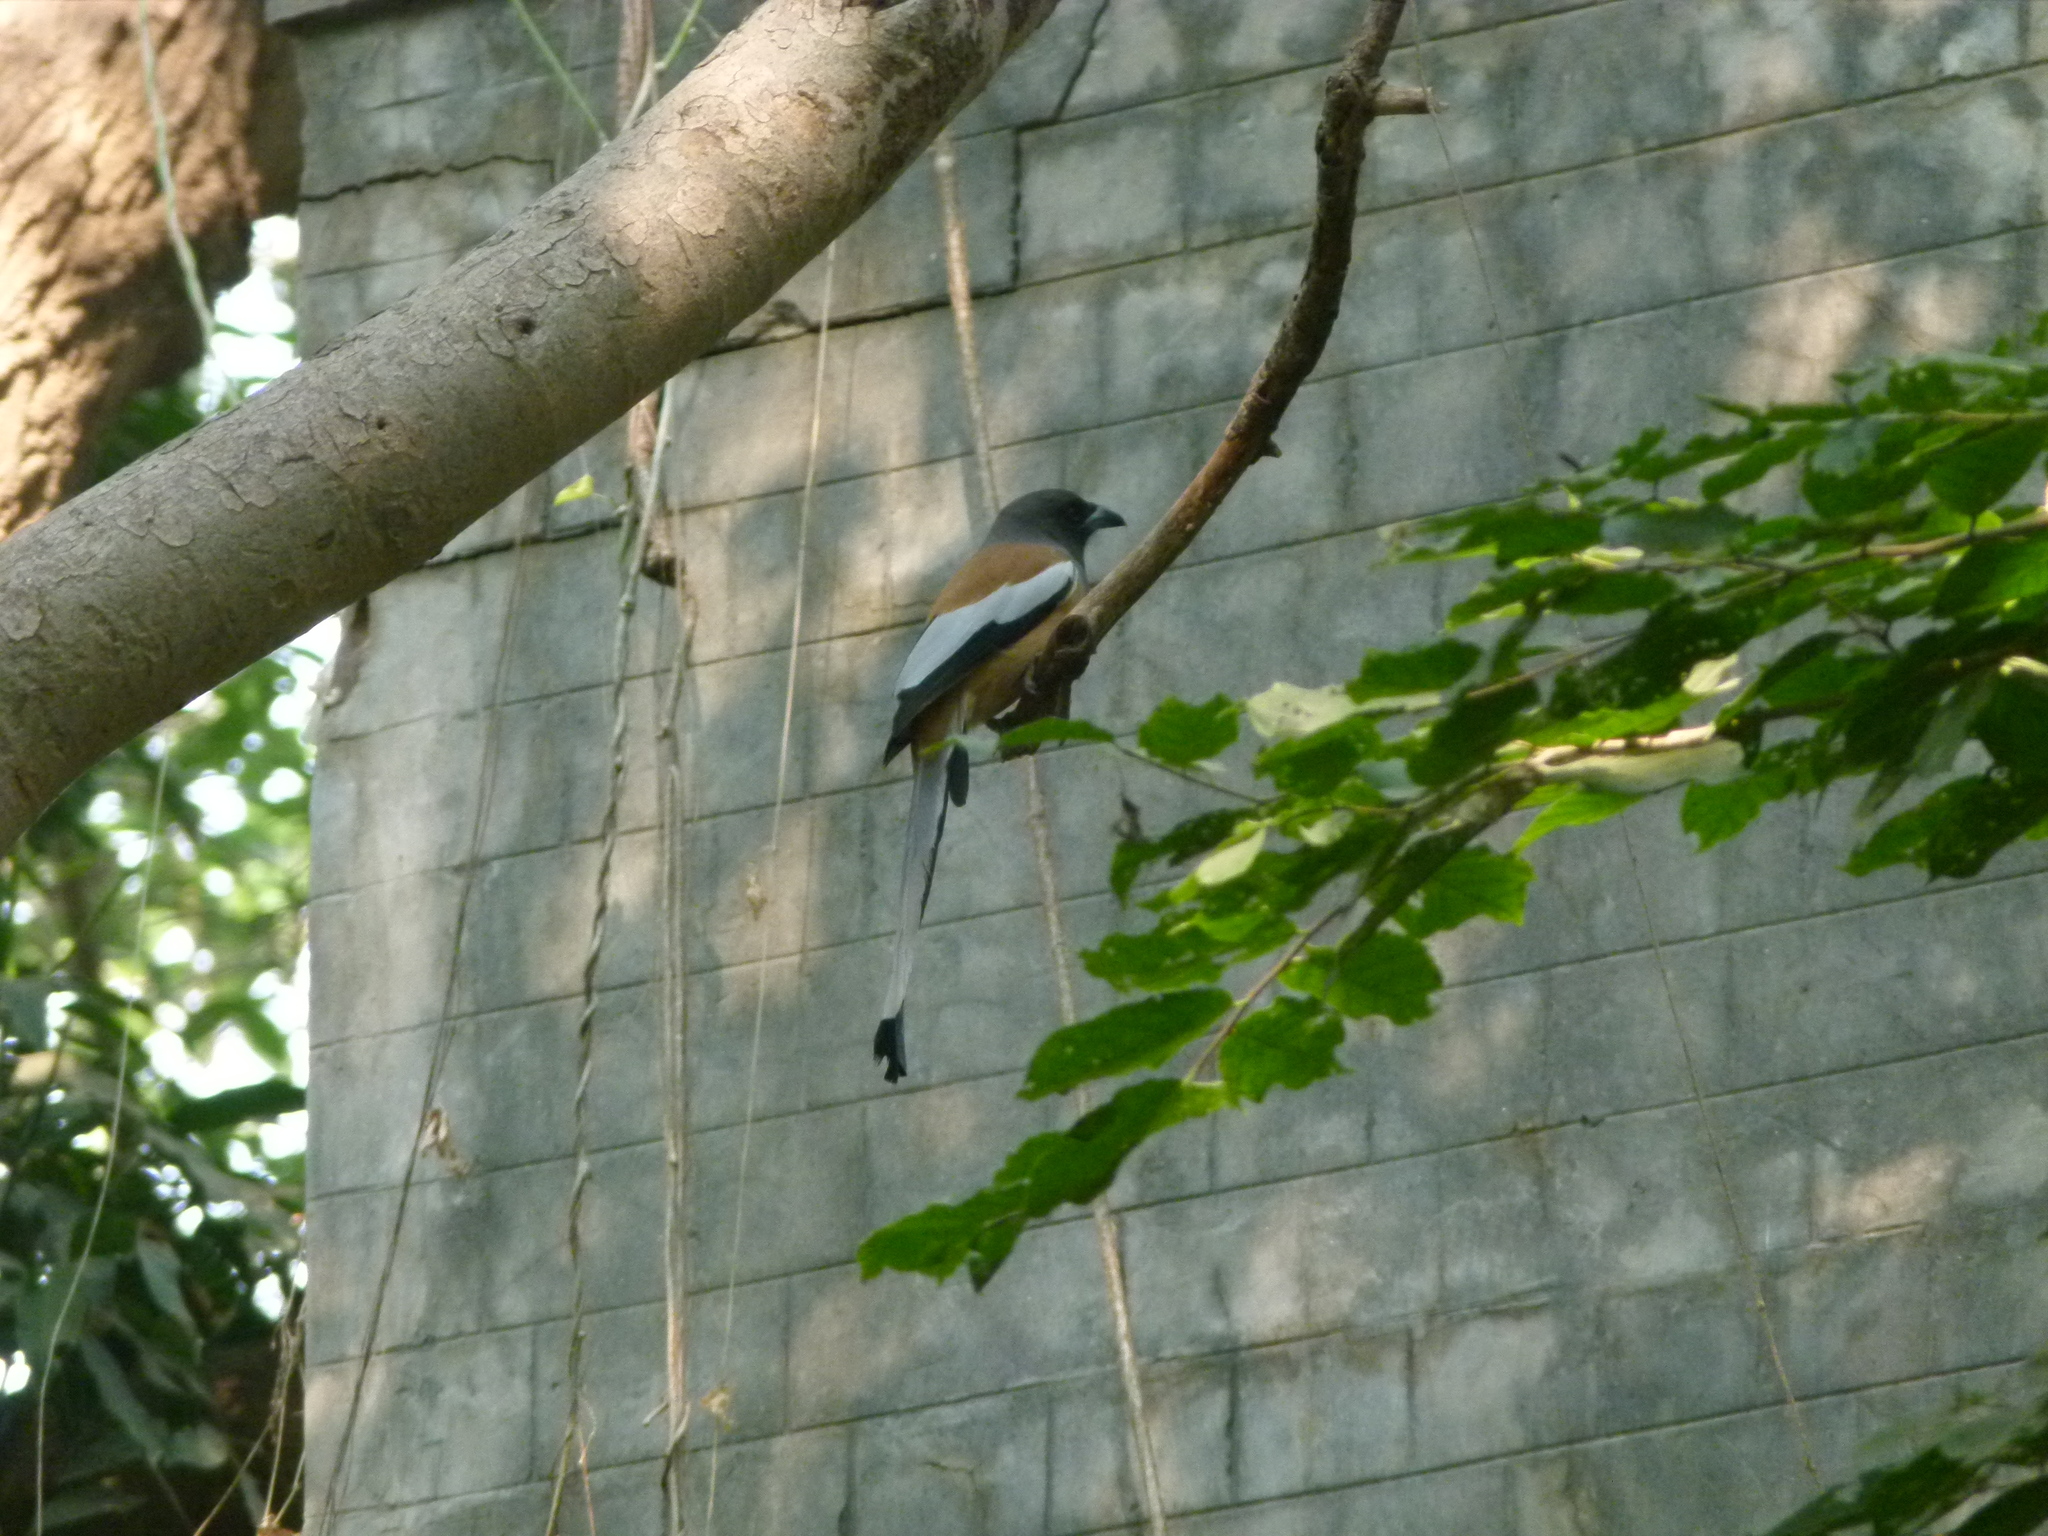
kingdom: Animalia
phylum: Chordata
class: Aves
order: Passeriformes
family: Corvidae
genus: Dendrocitta
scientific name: Dendrocitta vagabunda
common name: Rufous treepie
